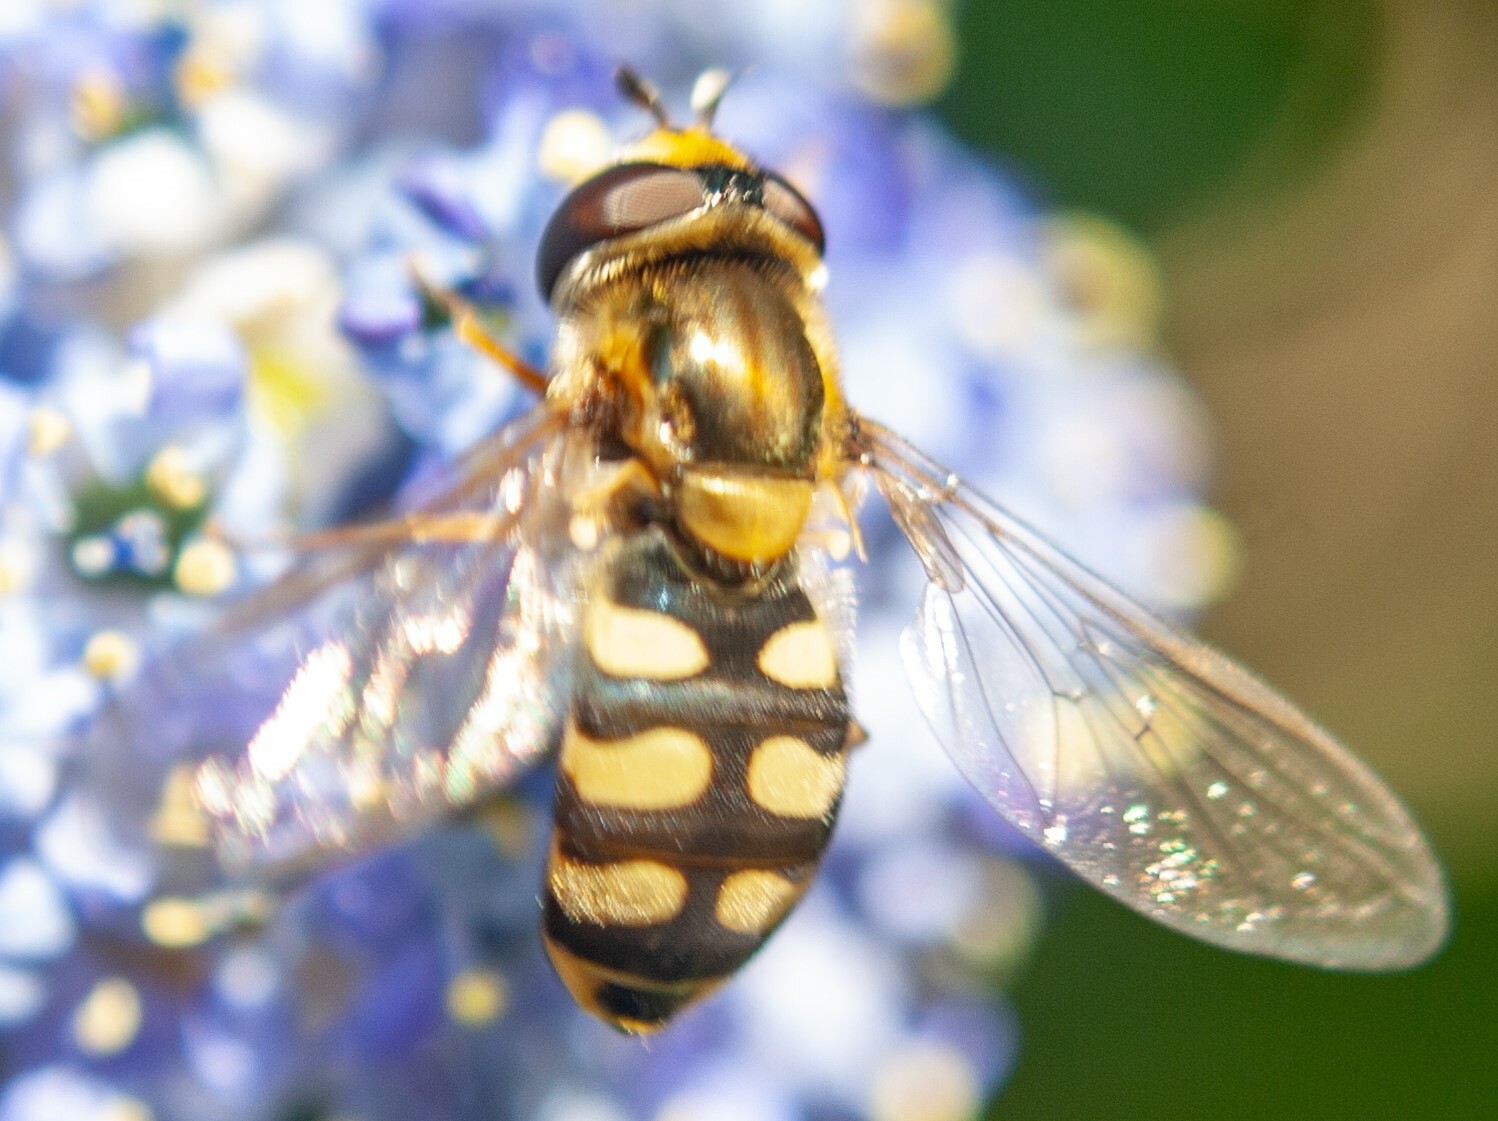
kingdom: Animalia
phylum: Arthropoda
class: Insecta
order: Diptera
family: Syrphidae
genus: Eupeodes
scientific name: Eupeodes corollae
